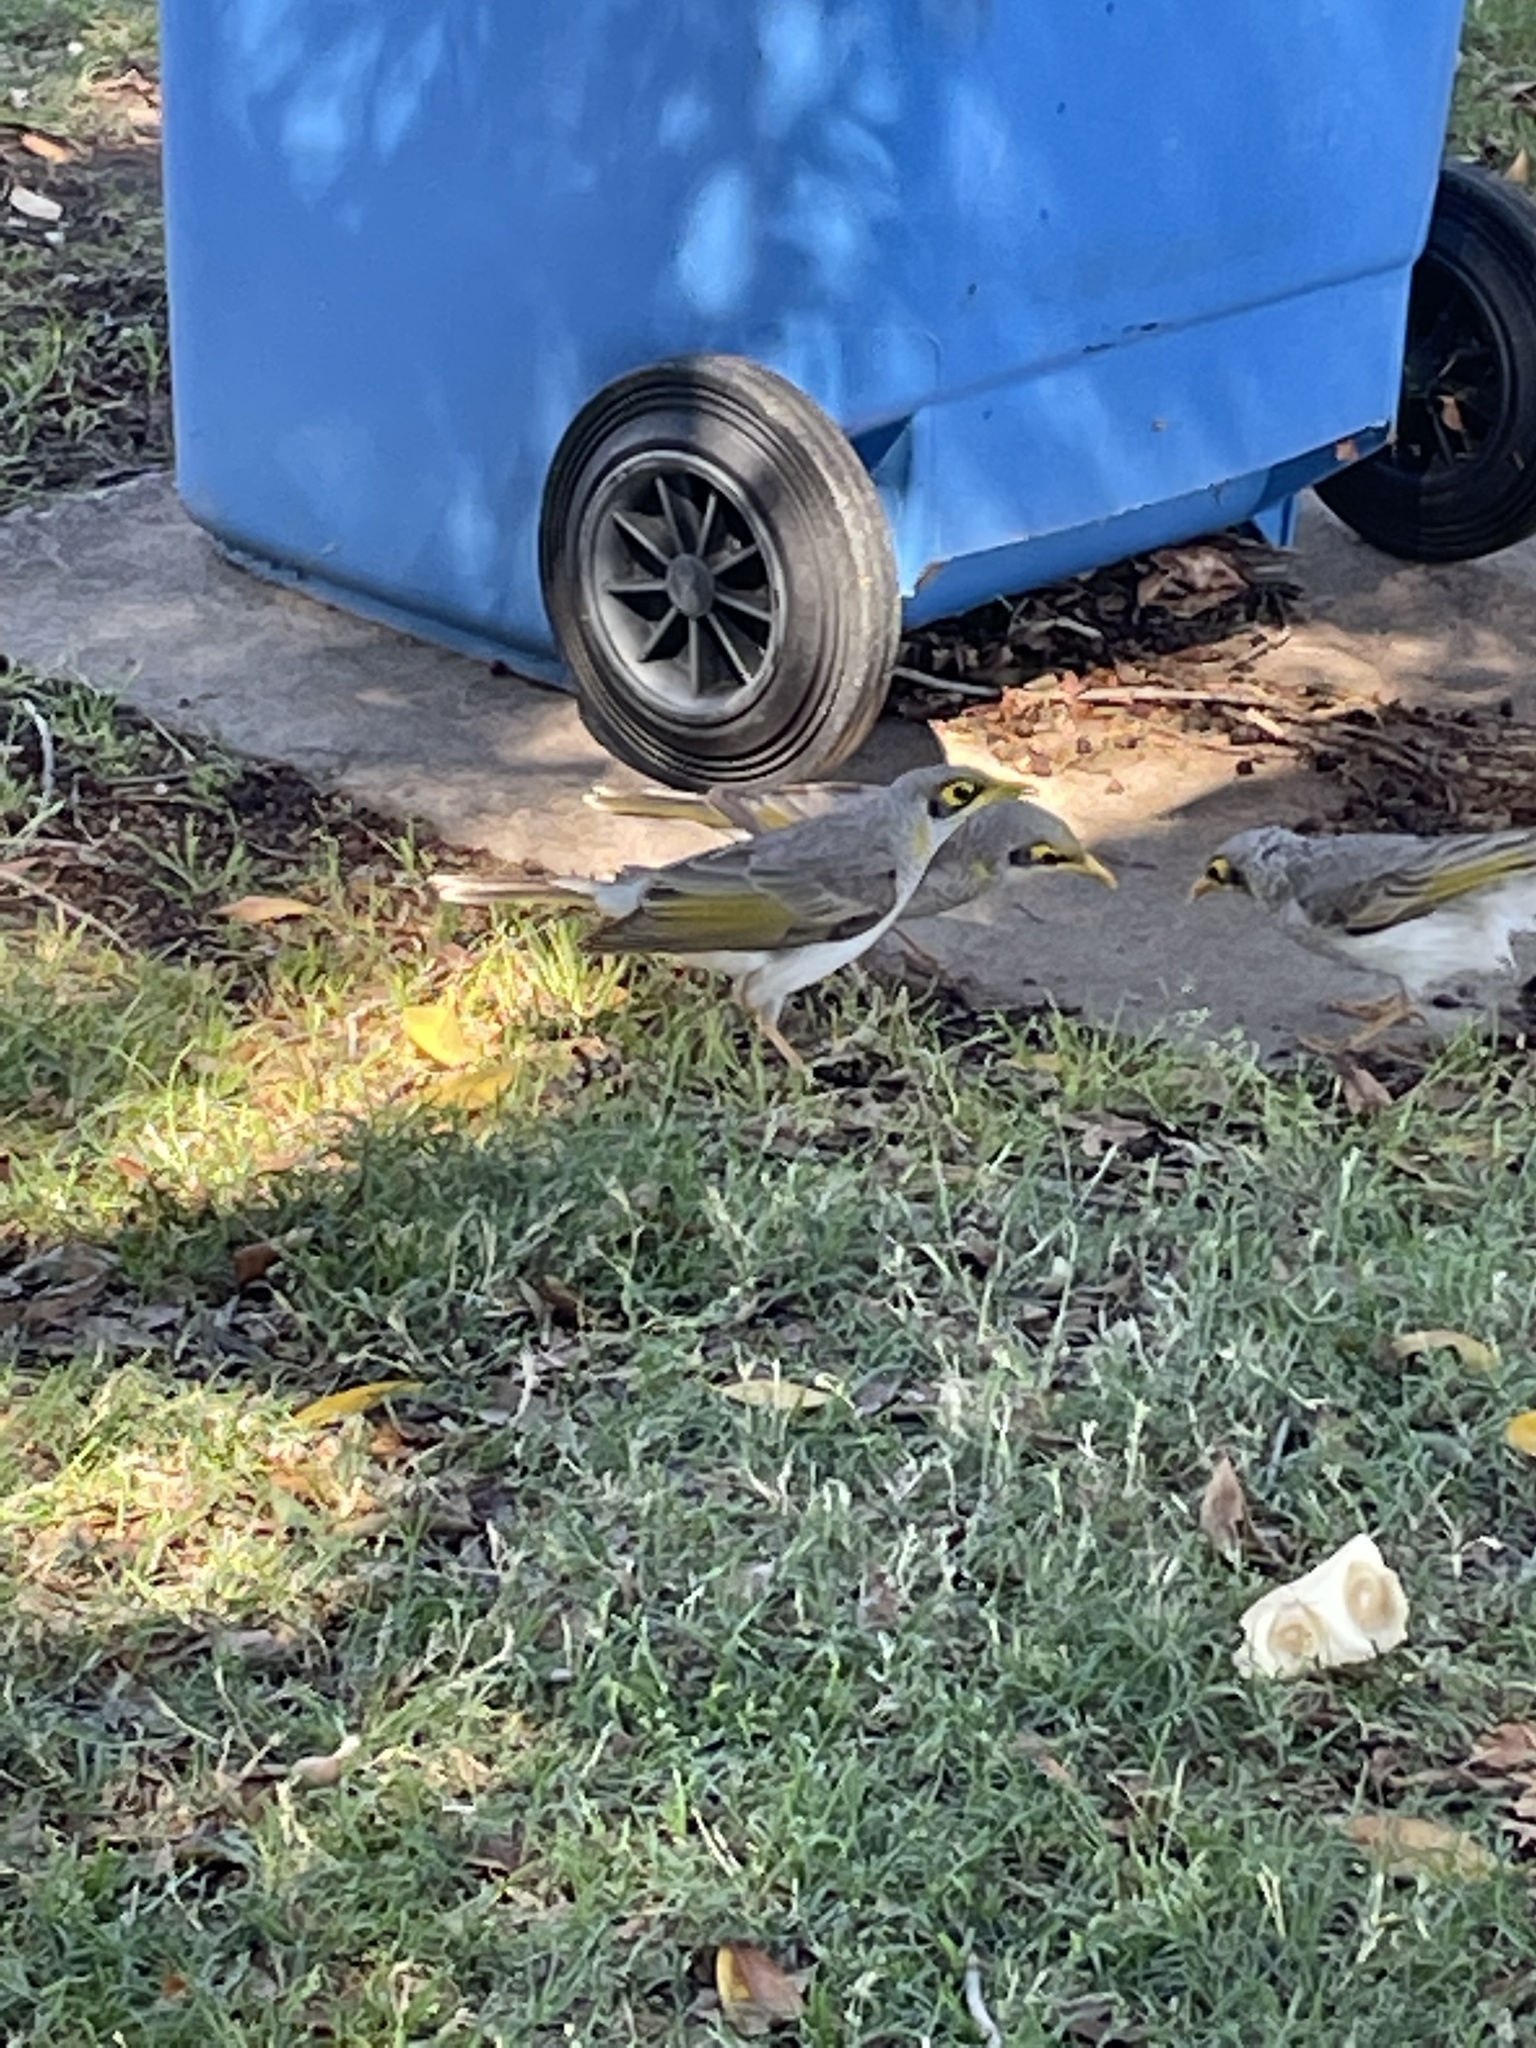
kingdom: Animalia
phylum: Chordata
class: Aves
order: Passeriformes
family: Meliphagidae
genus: Manorina
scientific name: Manorina flavigula
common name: Yellow-throated miner
